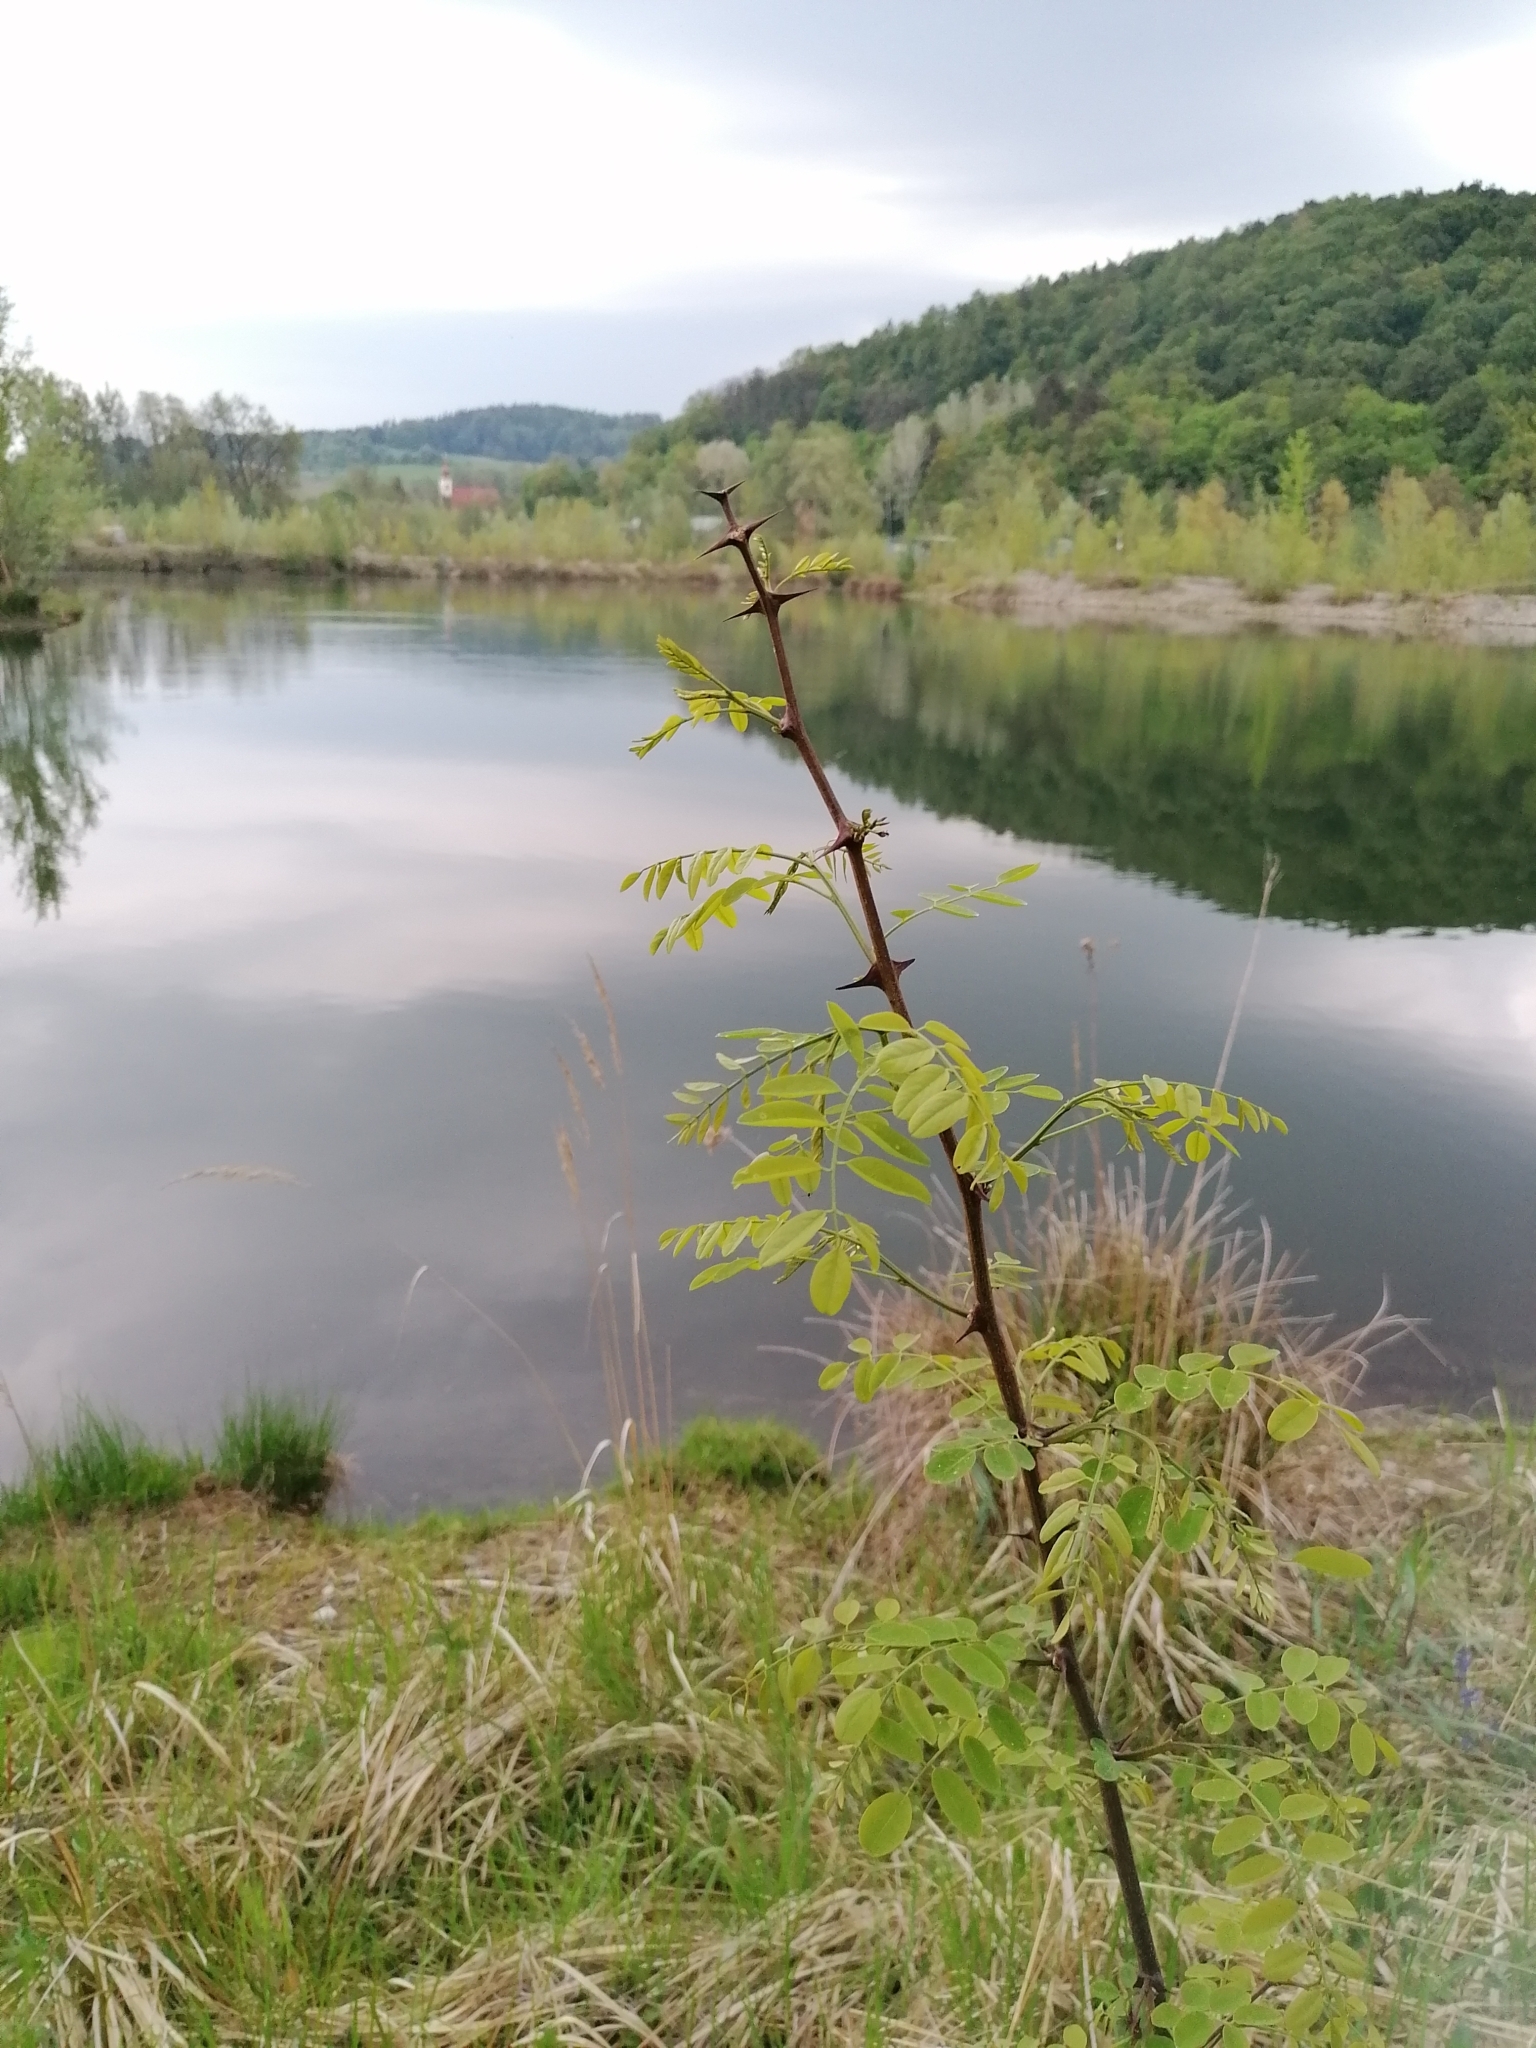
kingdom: Plantae
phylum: Tracheophyta
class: Magnoliopsida
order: Fabales
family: Fabaceae
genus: Robinia
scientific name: Robinia pseudoacacia
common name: Black locust
